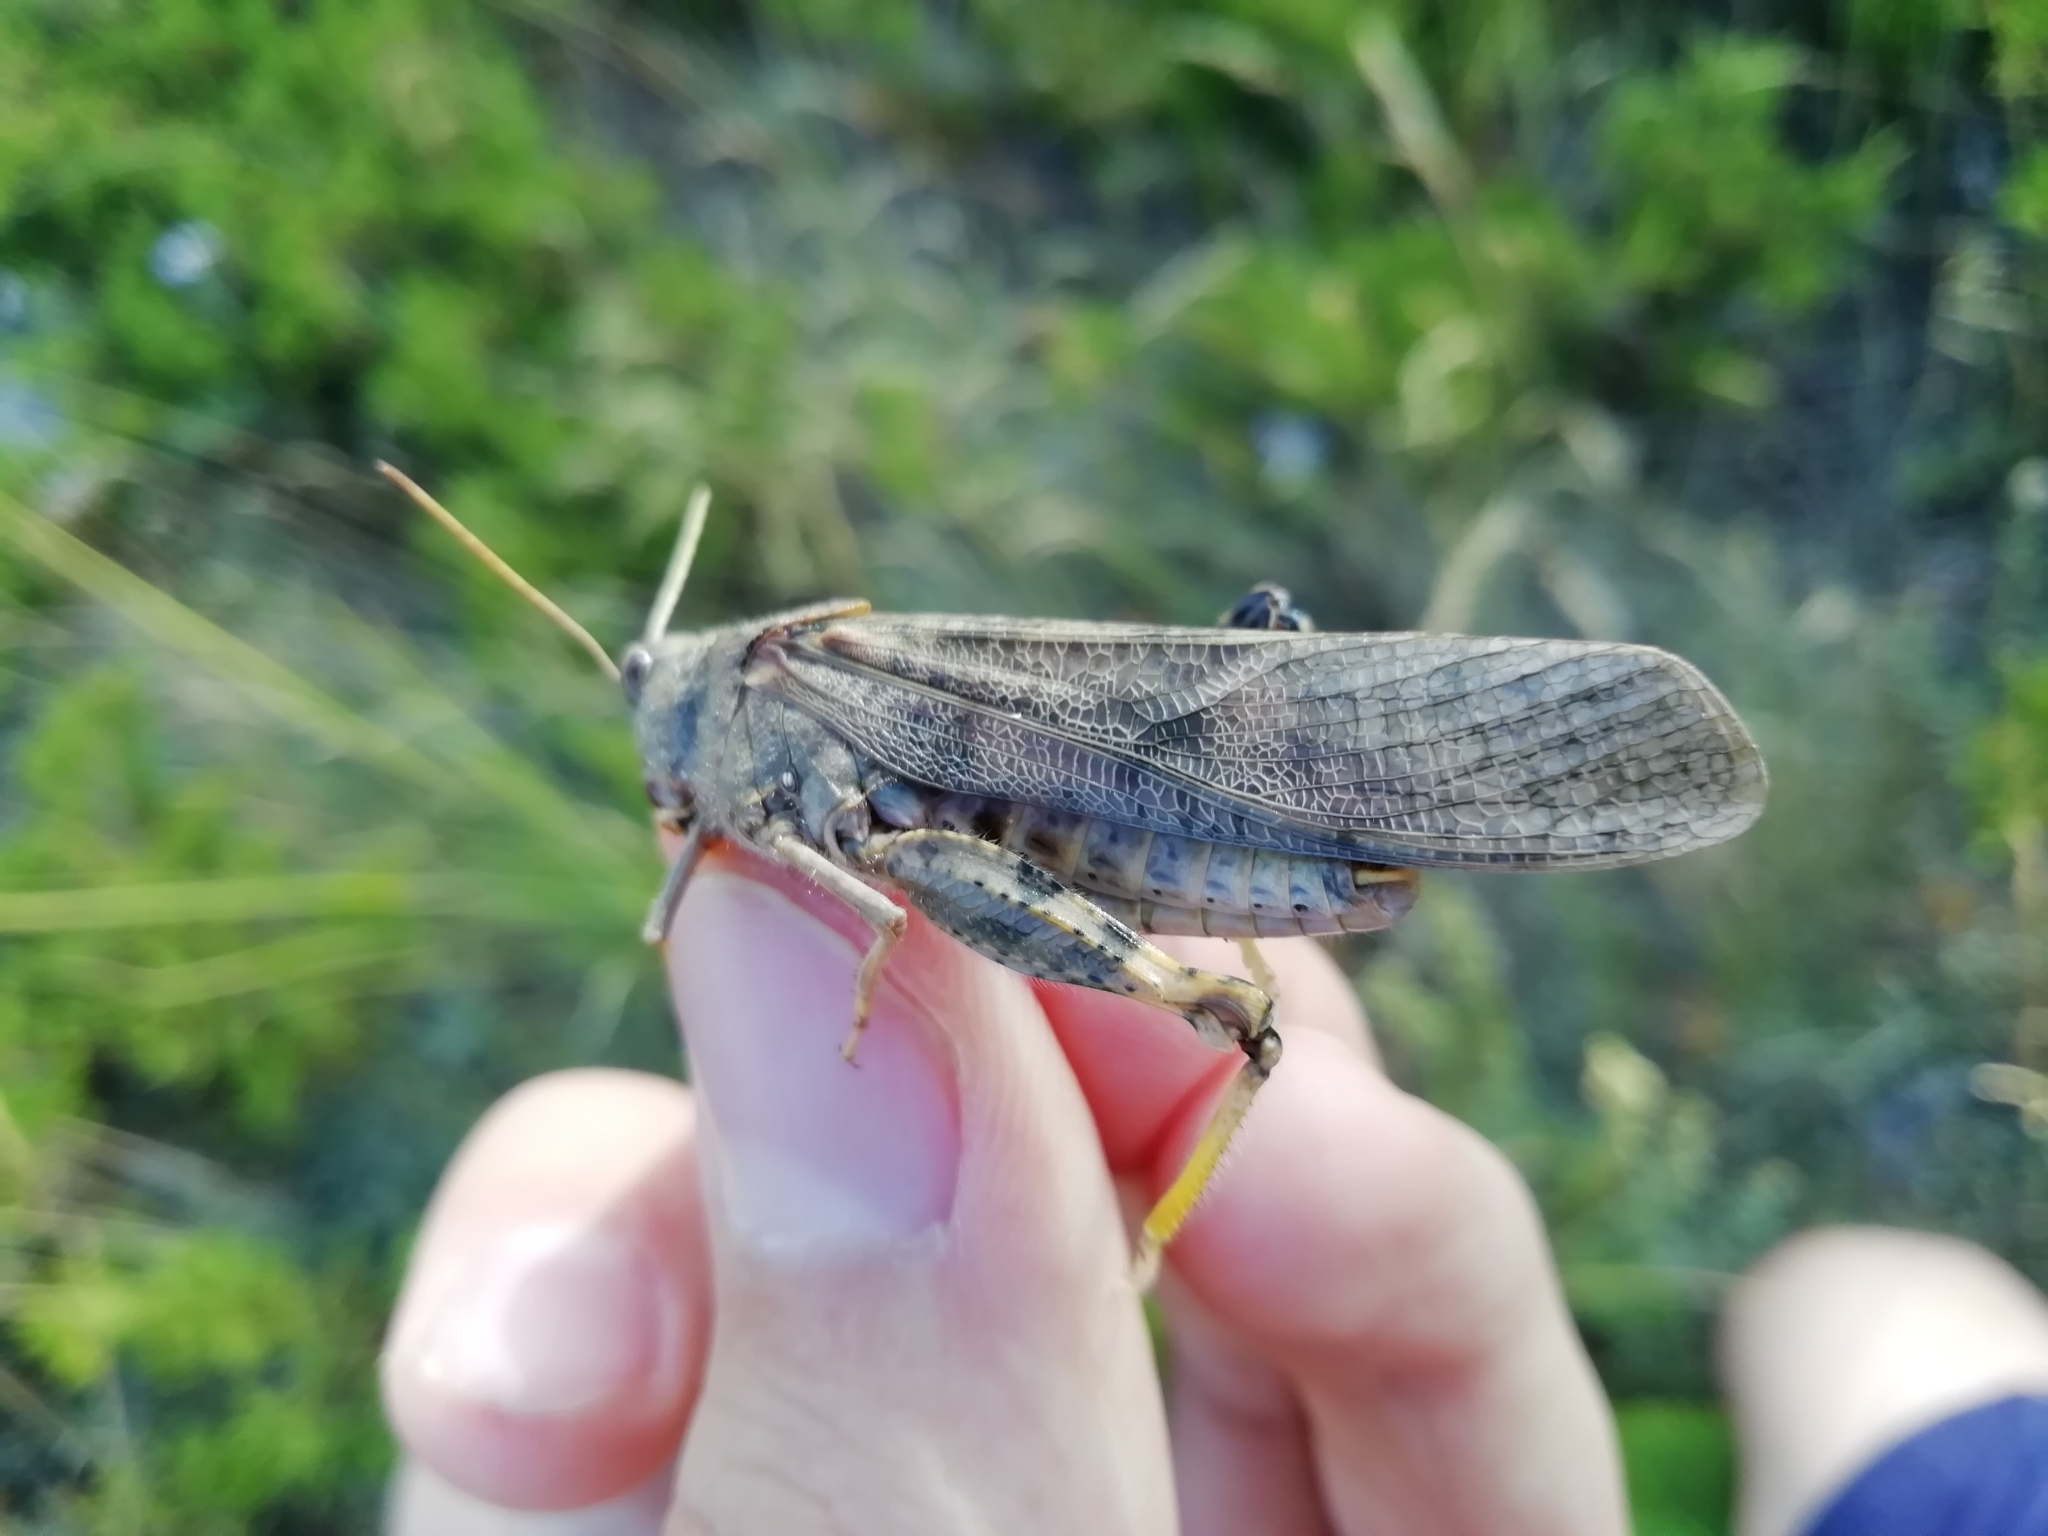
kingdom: Animalia
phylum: Arthropoda
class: Insecta
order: Orthoptera
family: Acrididae
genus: Bryodemella
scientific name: Bryodemella holdereri
